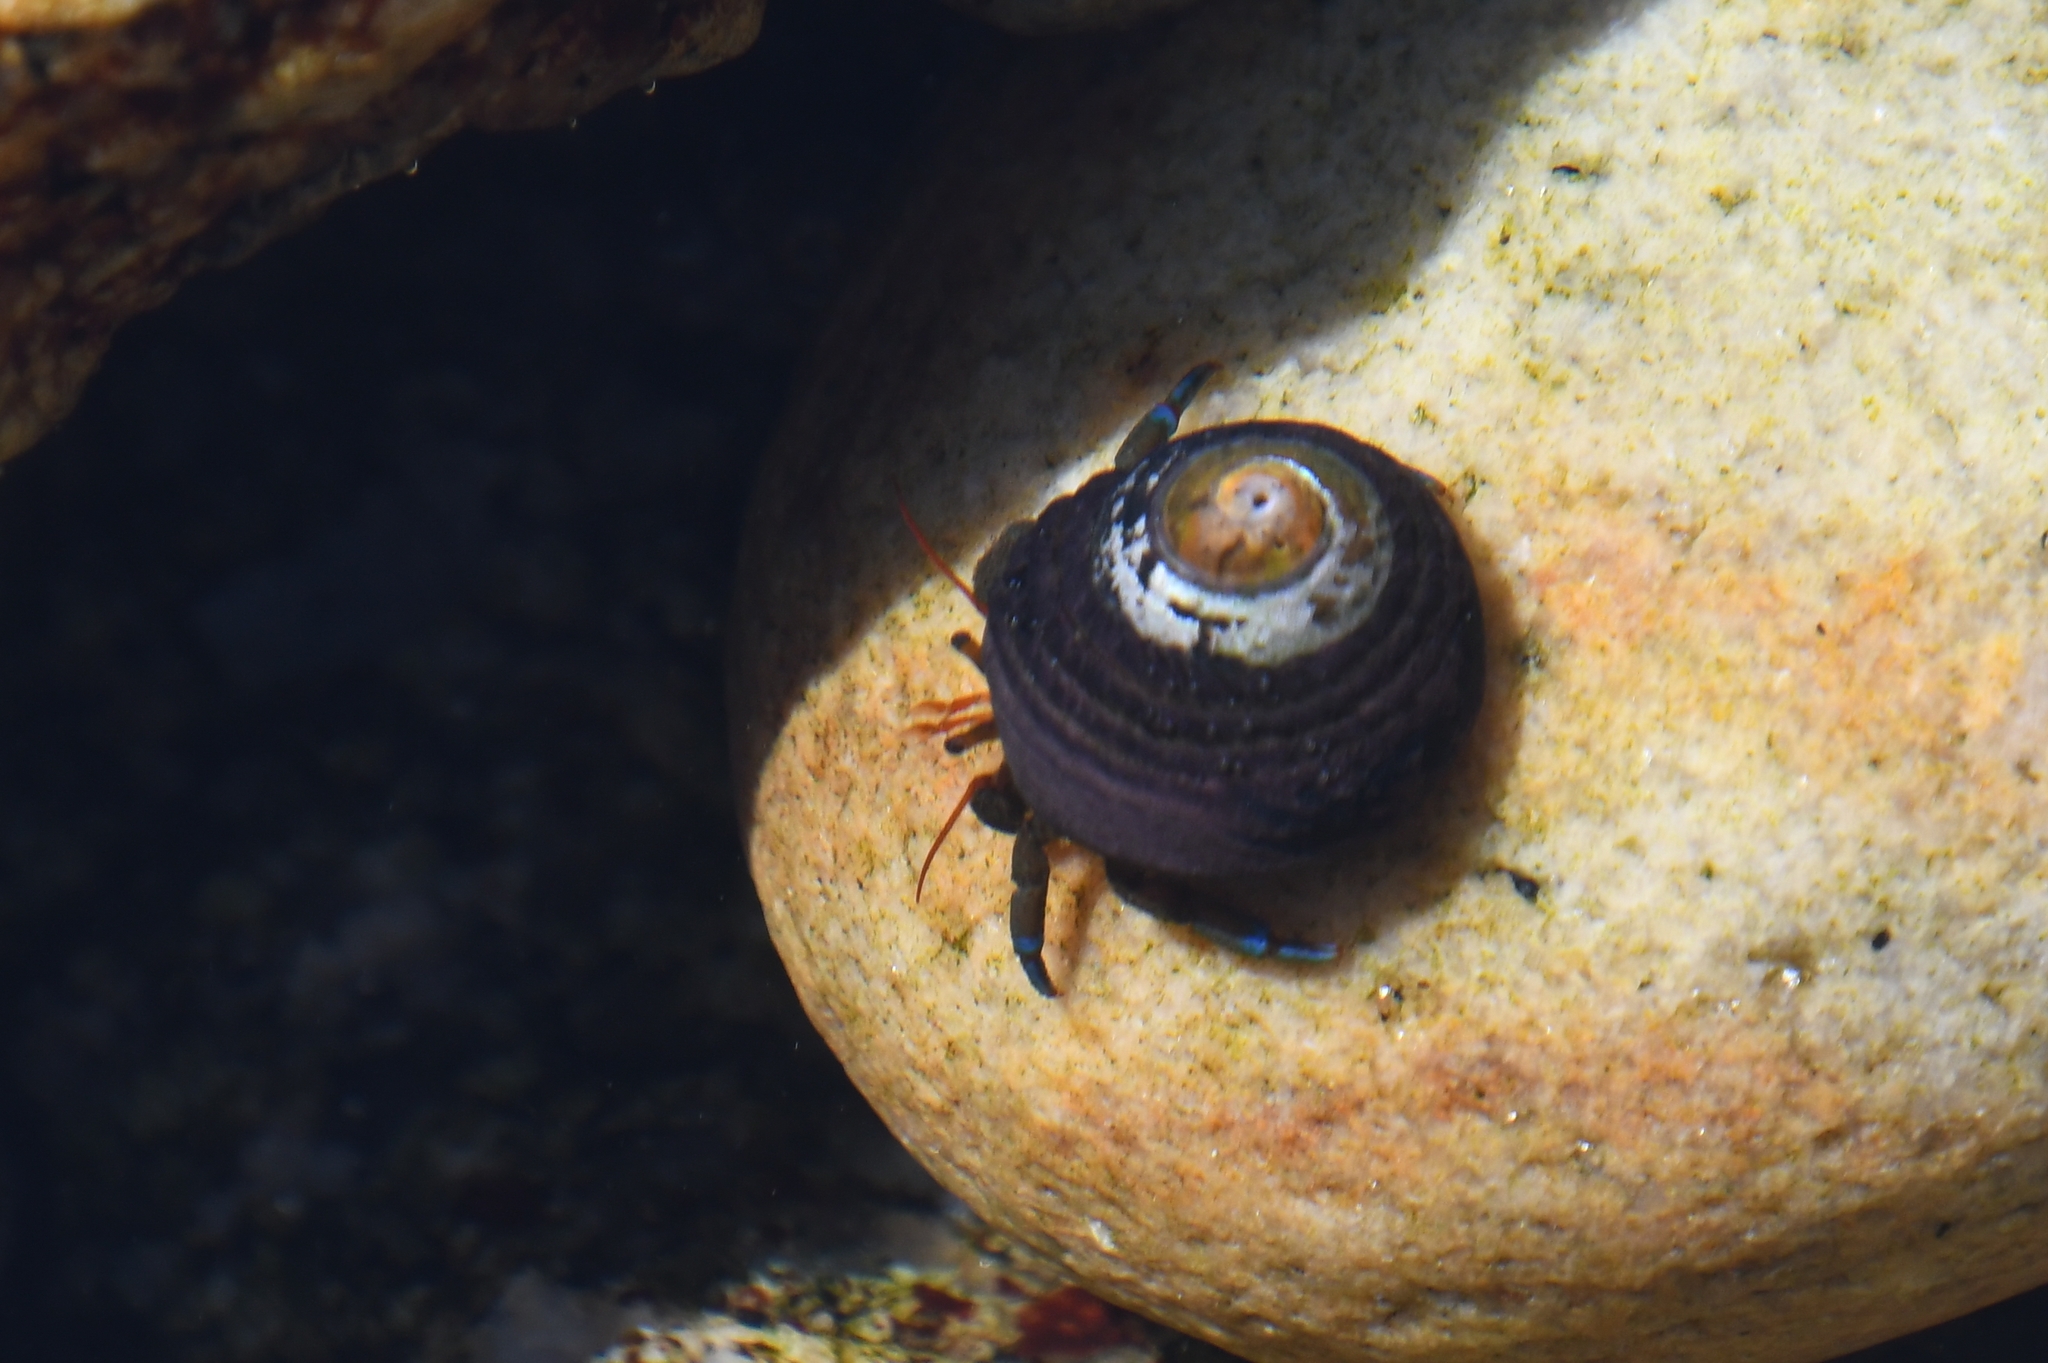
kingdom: Animalia
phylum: Arthropoda
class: Malacostraca
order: Decapoda
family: Paguridae
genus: Pagurus
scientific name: Pagurus samuelis
